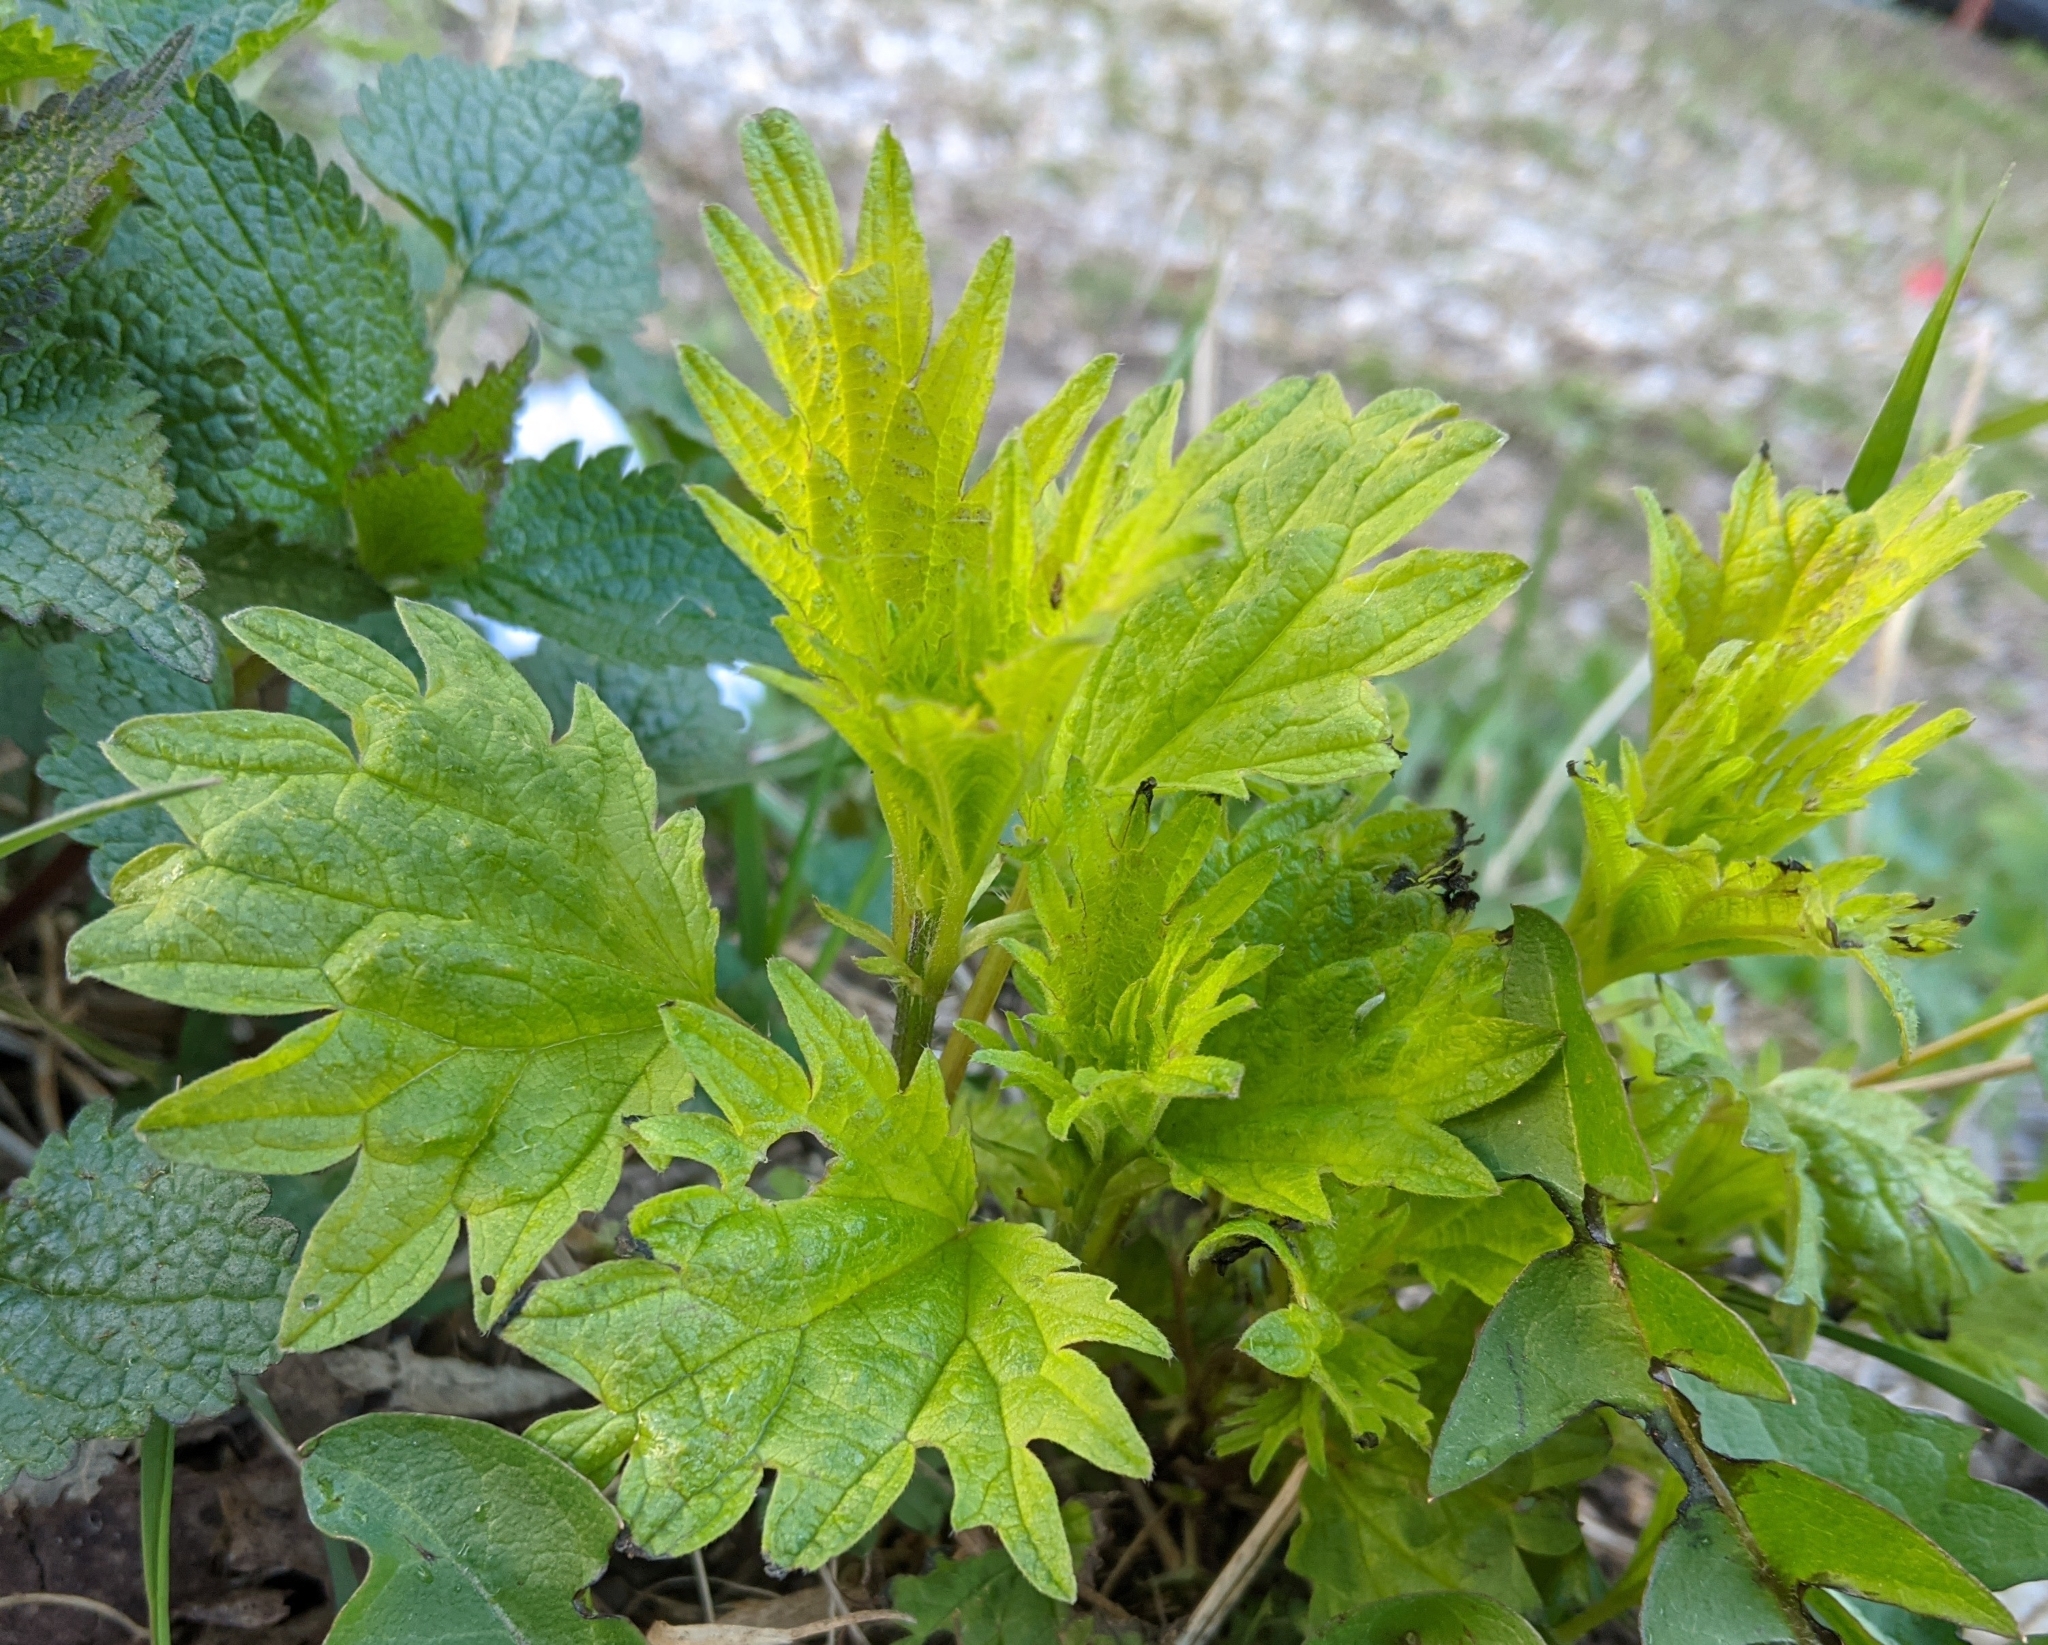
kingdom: Plantae
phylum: Tracheophyta
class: Magnoliopsida
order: Rosales
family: Urticaceae
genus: Urtica
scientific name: Urtica dioica
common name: Common nettle
